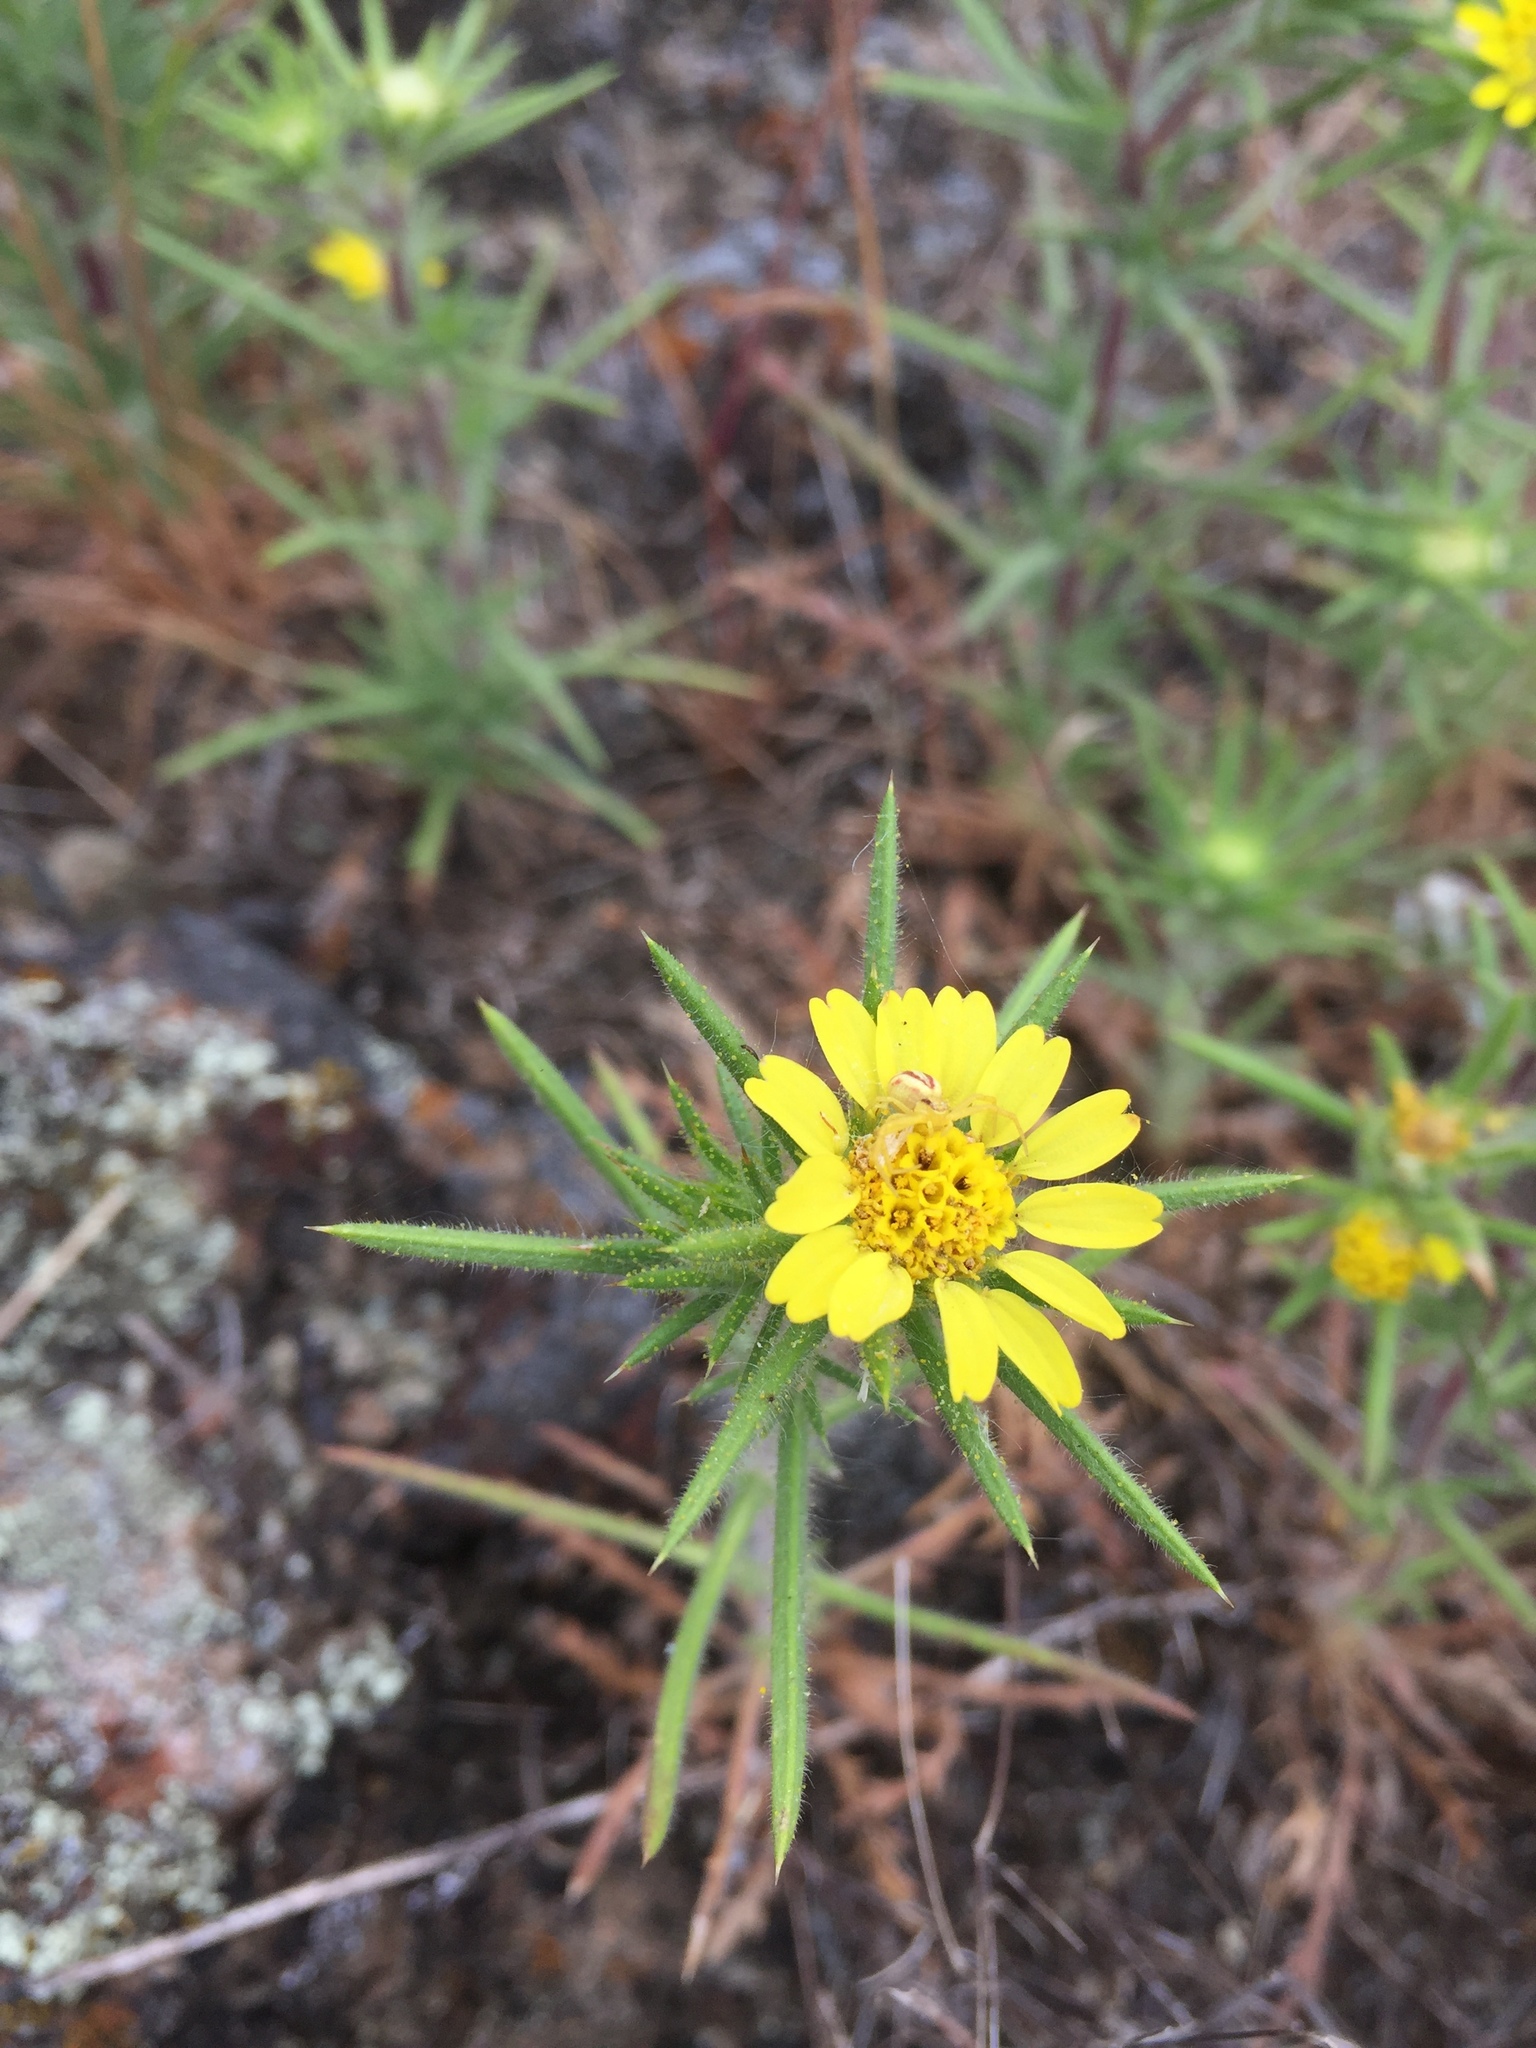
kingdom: Plantae
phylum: Tracheophyta
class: Magnoliopsida
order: Asterales
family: Asteraceae
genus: Centromadia
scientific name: Centromadia fitchii
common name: Fitch's spikeweed
